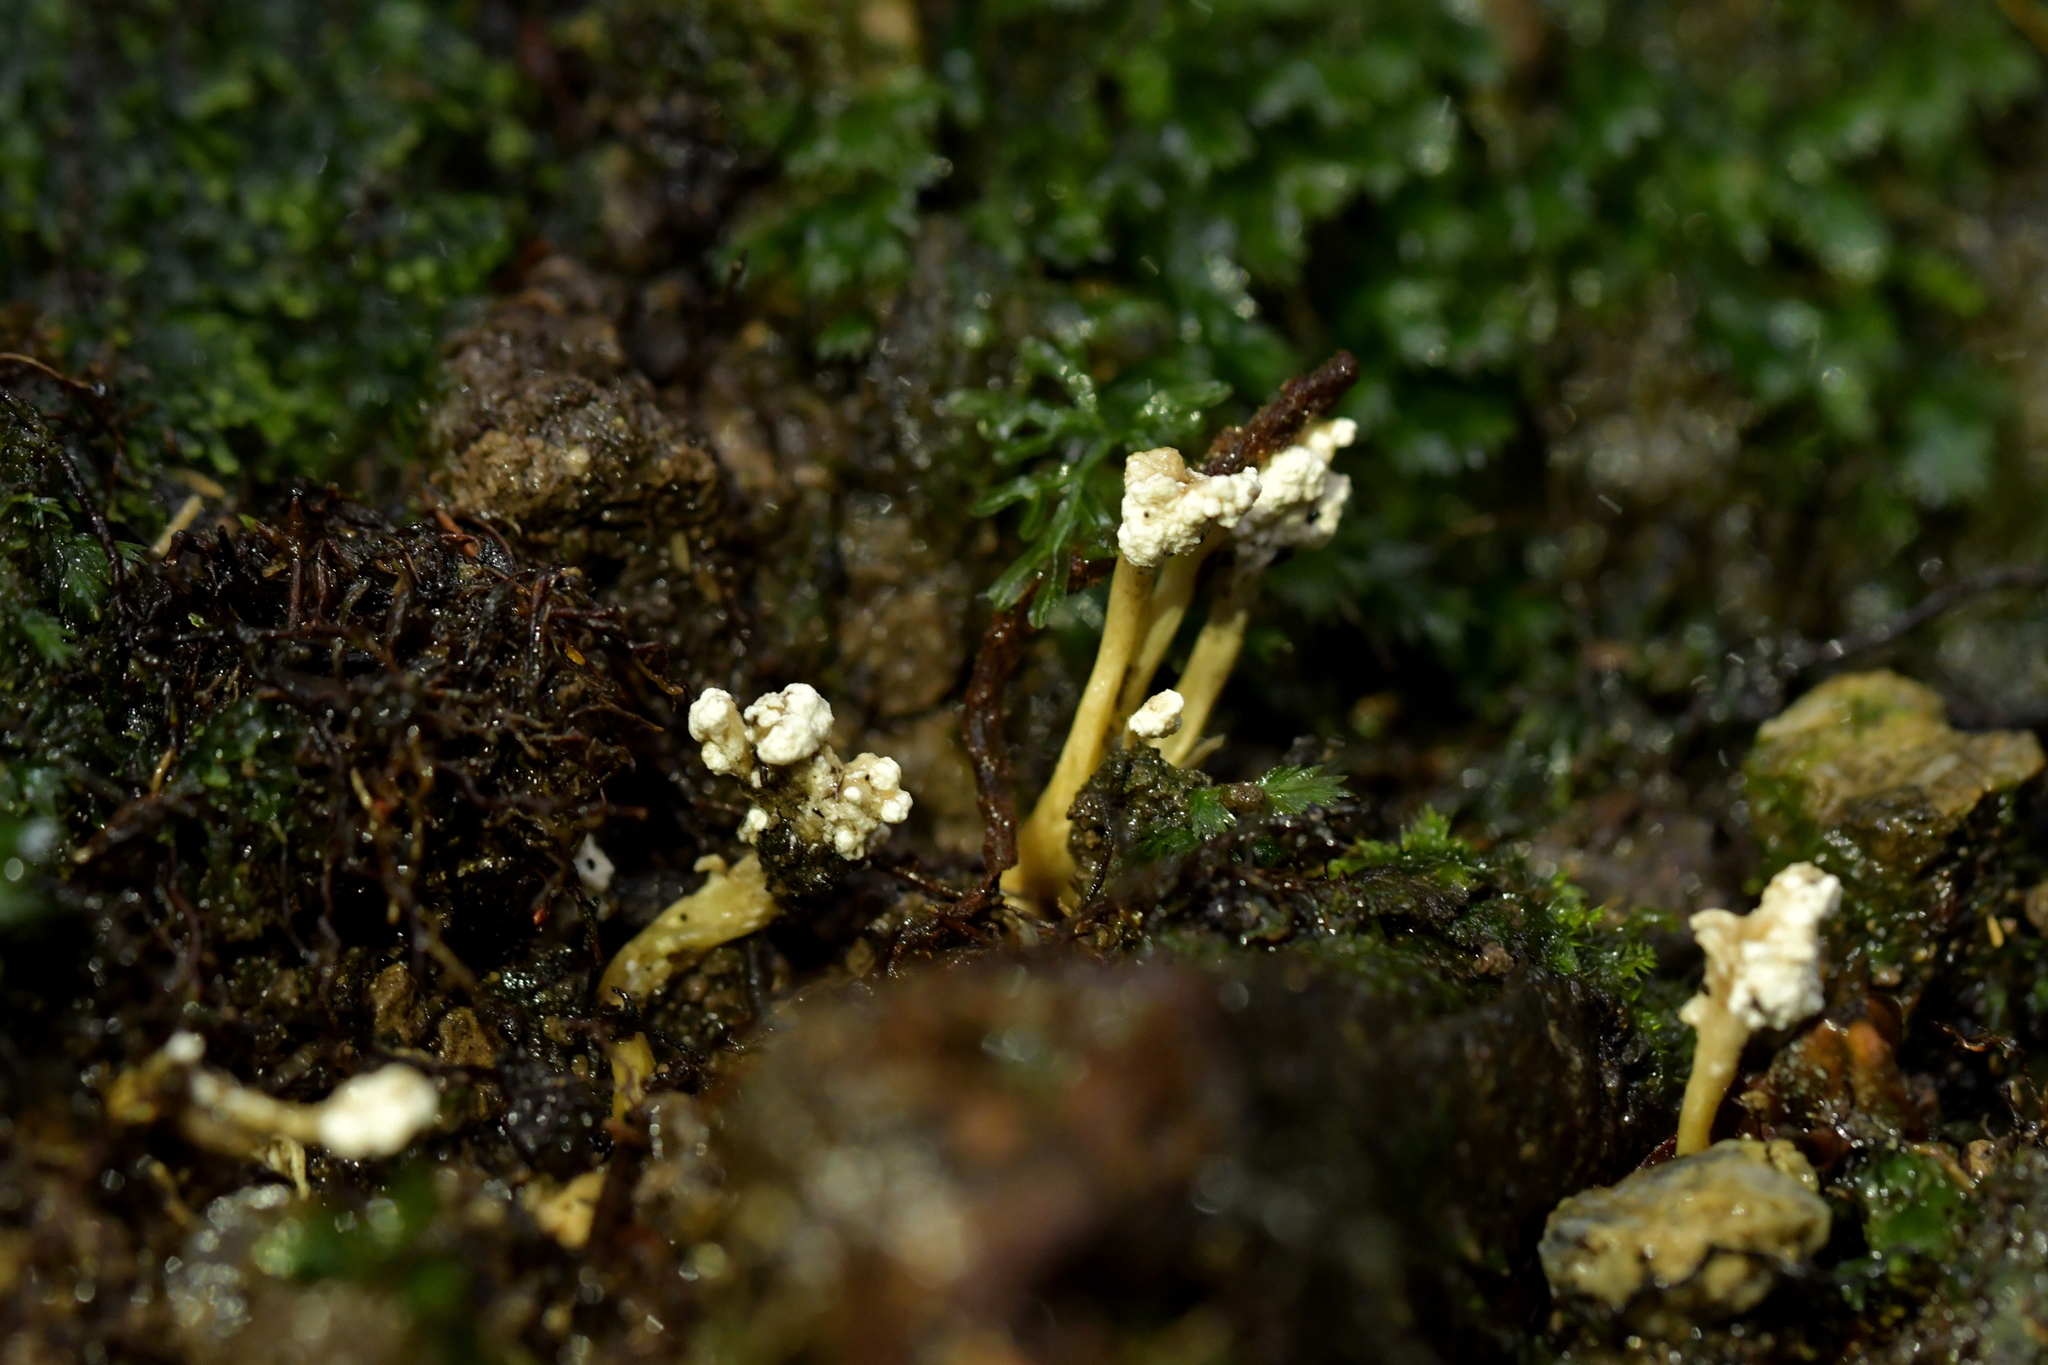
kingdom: Fungi
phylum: Ascomycota
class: Sordariomycetes
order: Hypocreales
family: Cordycipitaceae
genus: Cordyceps
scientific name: Cordyceps tenuipes
